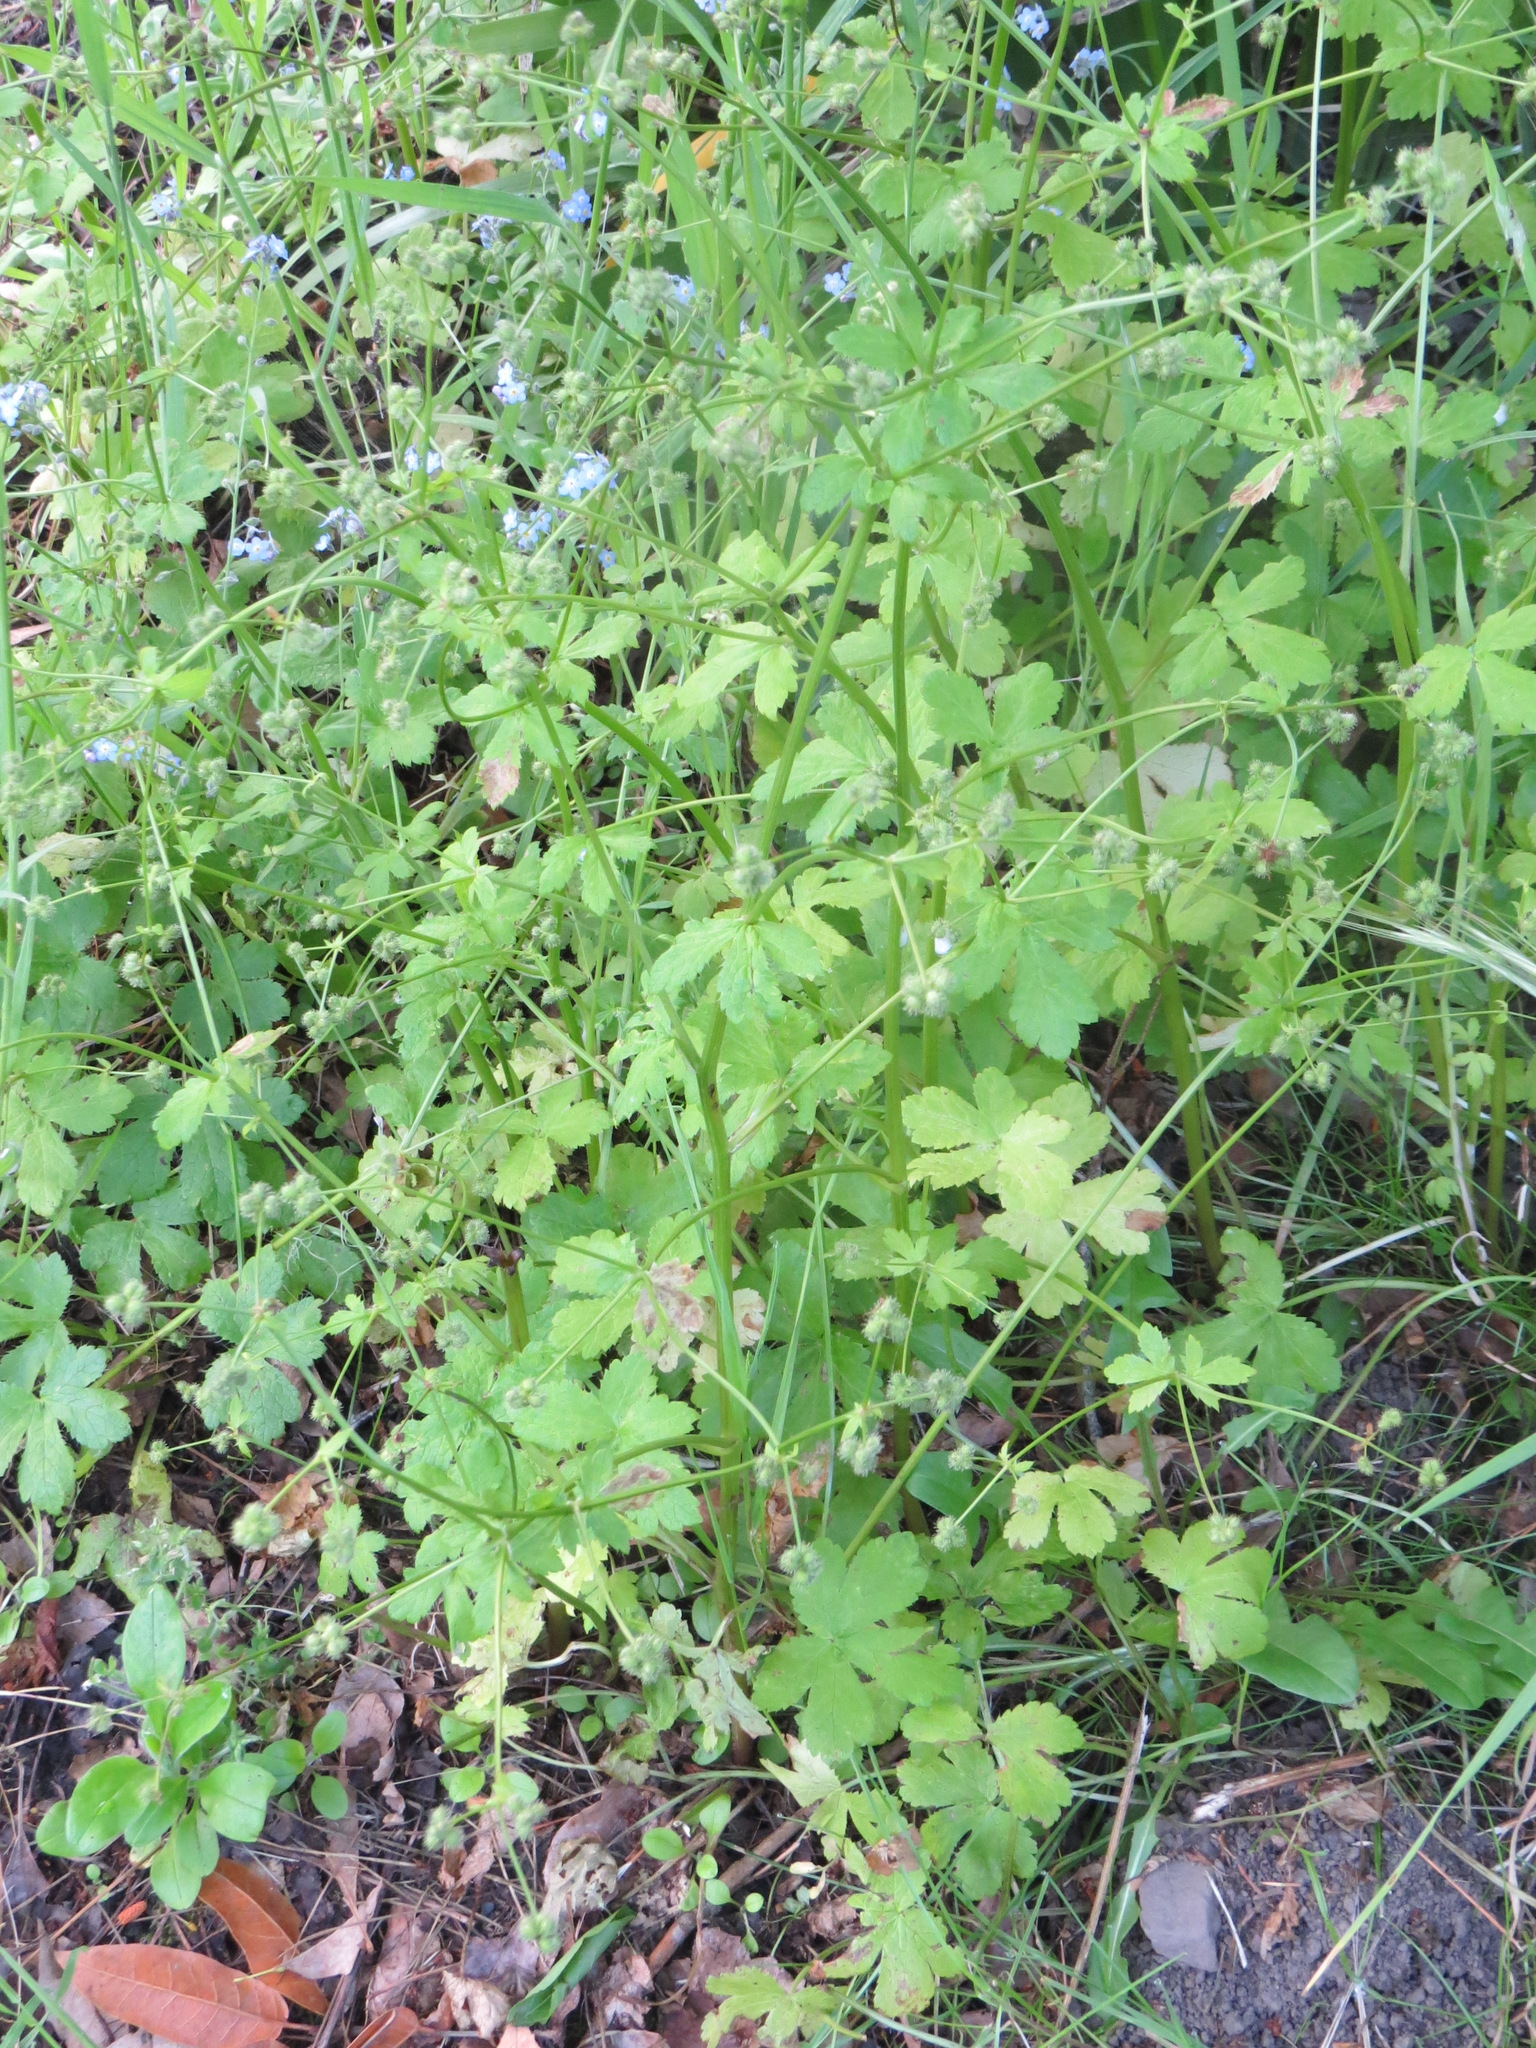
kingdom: Plantae
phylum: Tracheophyta
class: Magnoliopsida
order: Apiales
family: Apiaceae
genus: Sanicula
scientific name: Sanicula crassicaulis
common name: Western snakeroot
